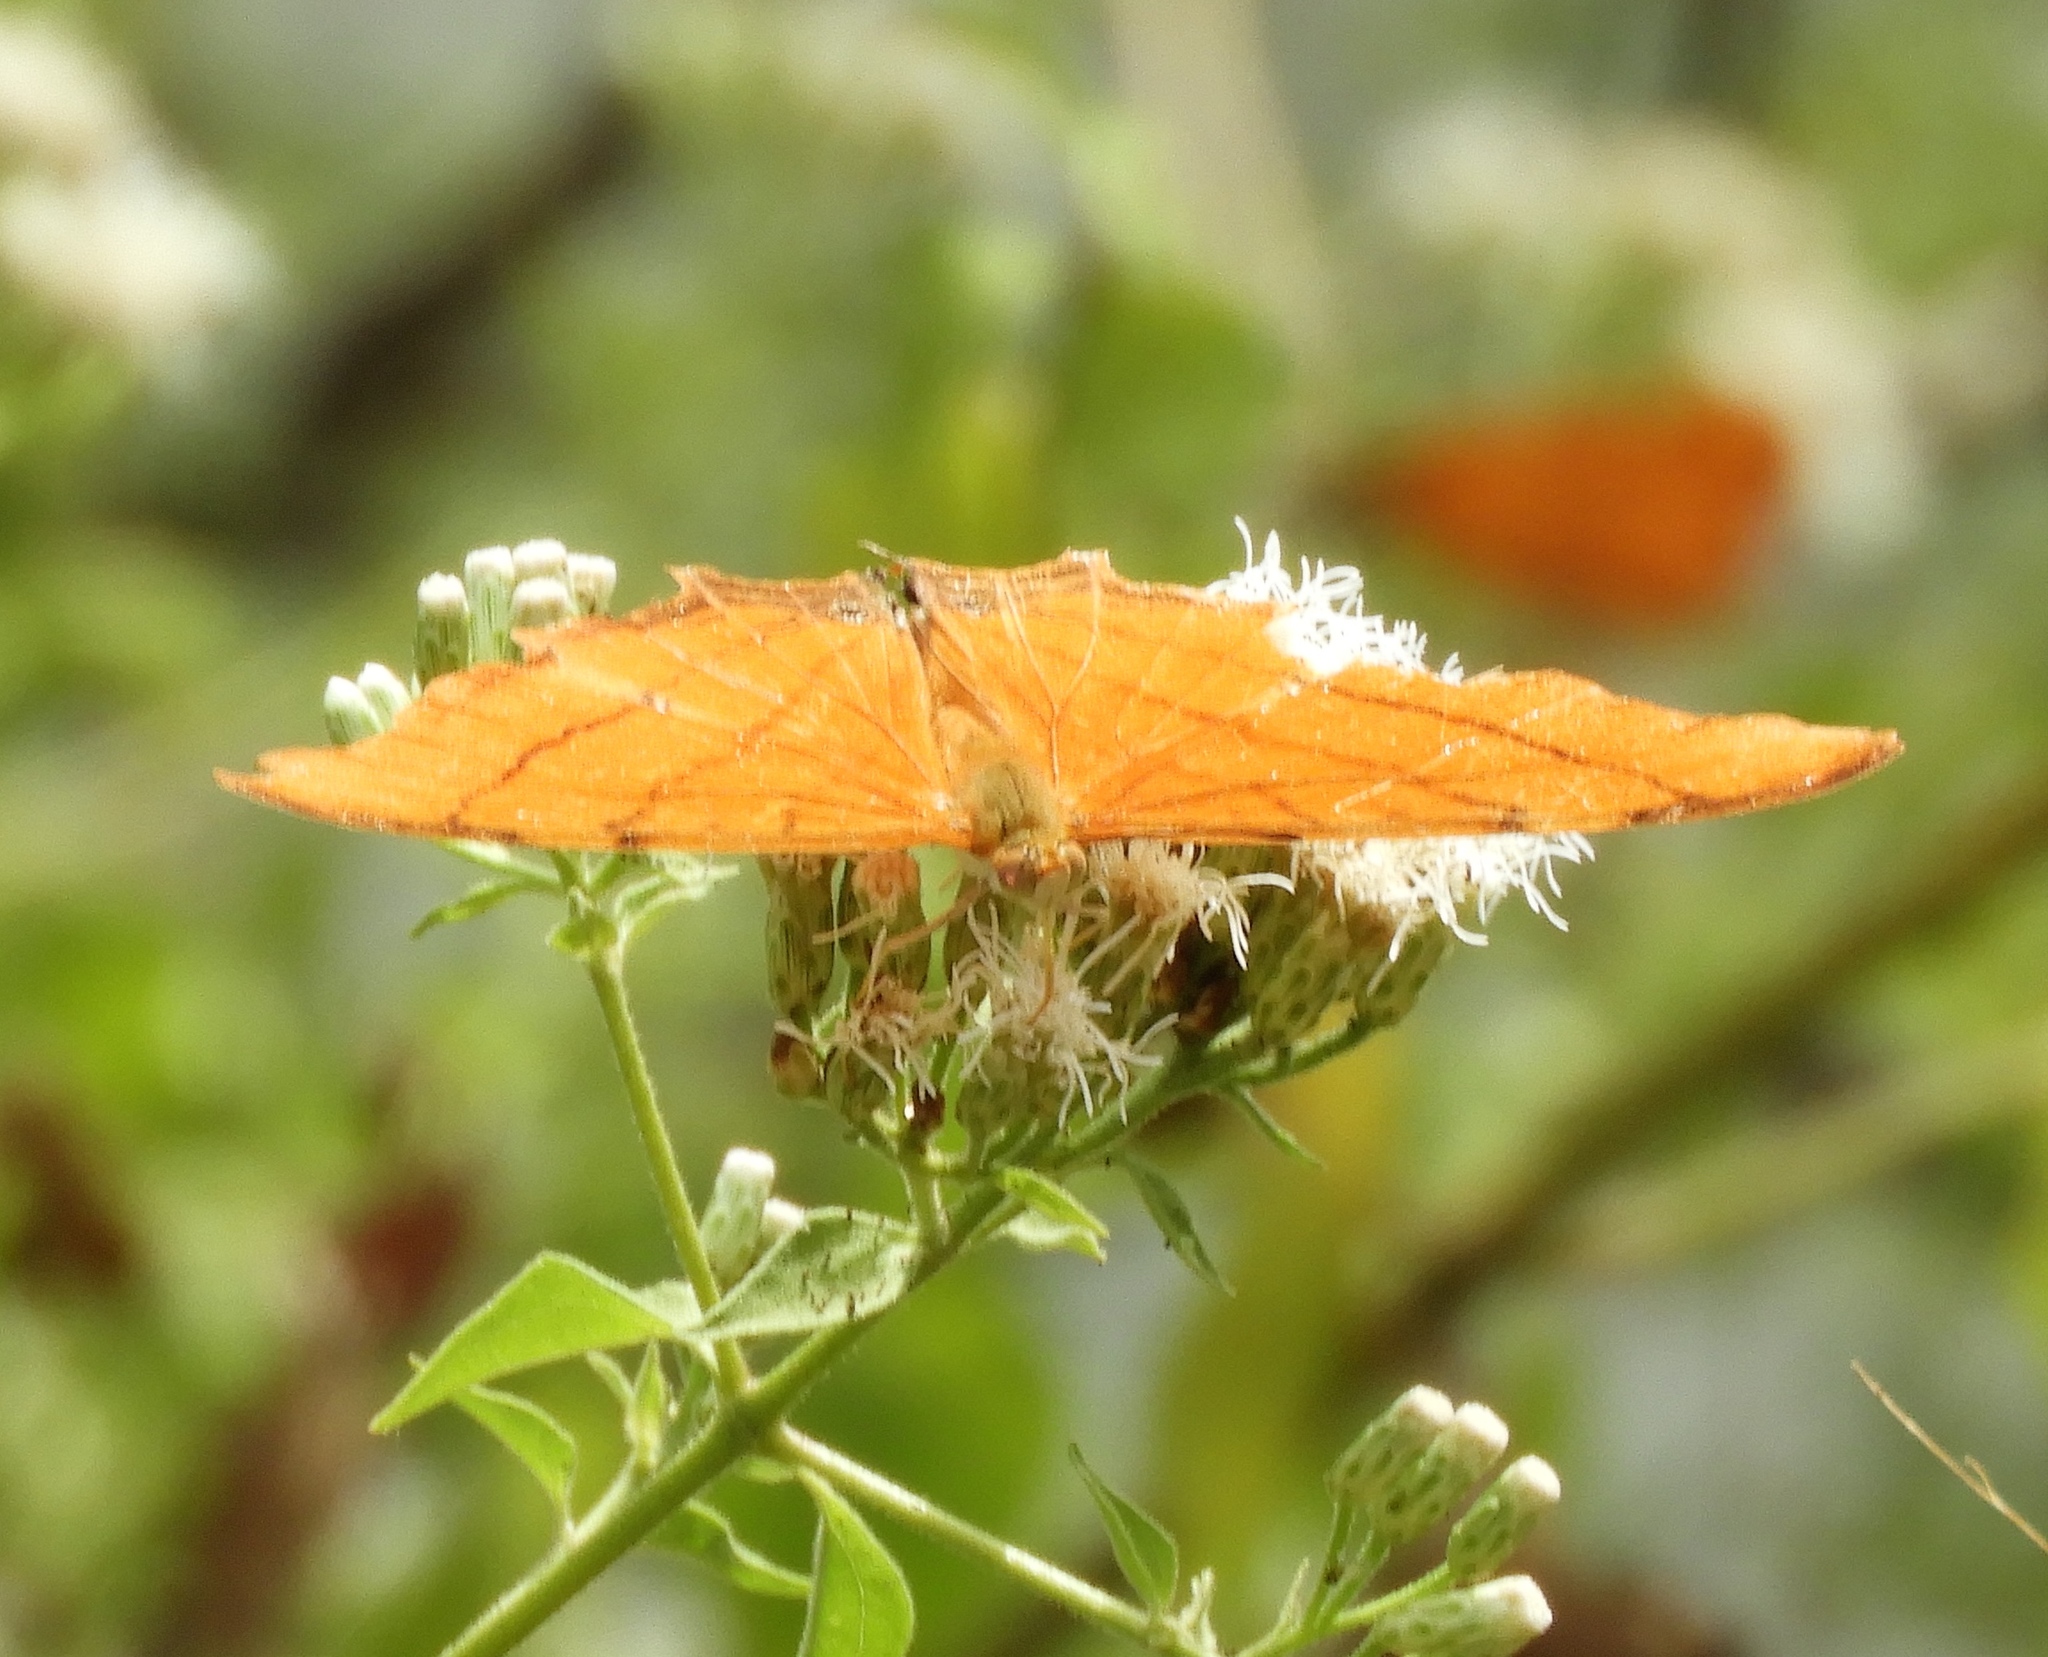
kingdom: Animalia
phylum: Arthropoda
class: Insecta
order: Lepidoptera
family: Nymphalidae
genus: Marpesia
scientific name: Marpesia petreus
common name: Red dagger wing
